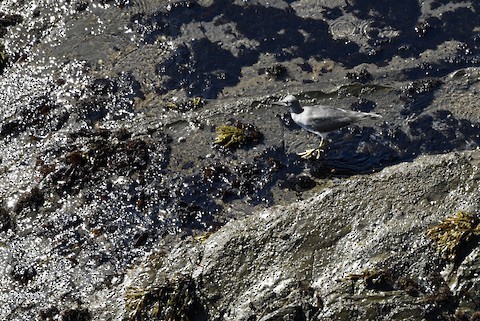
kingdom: Animalia
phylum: Chordata
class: Aves
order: Charadriiformes
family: Scolopacidae
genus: Tringa
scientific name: Tringa incana
